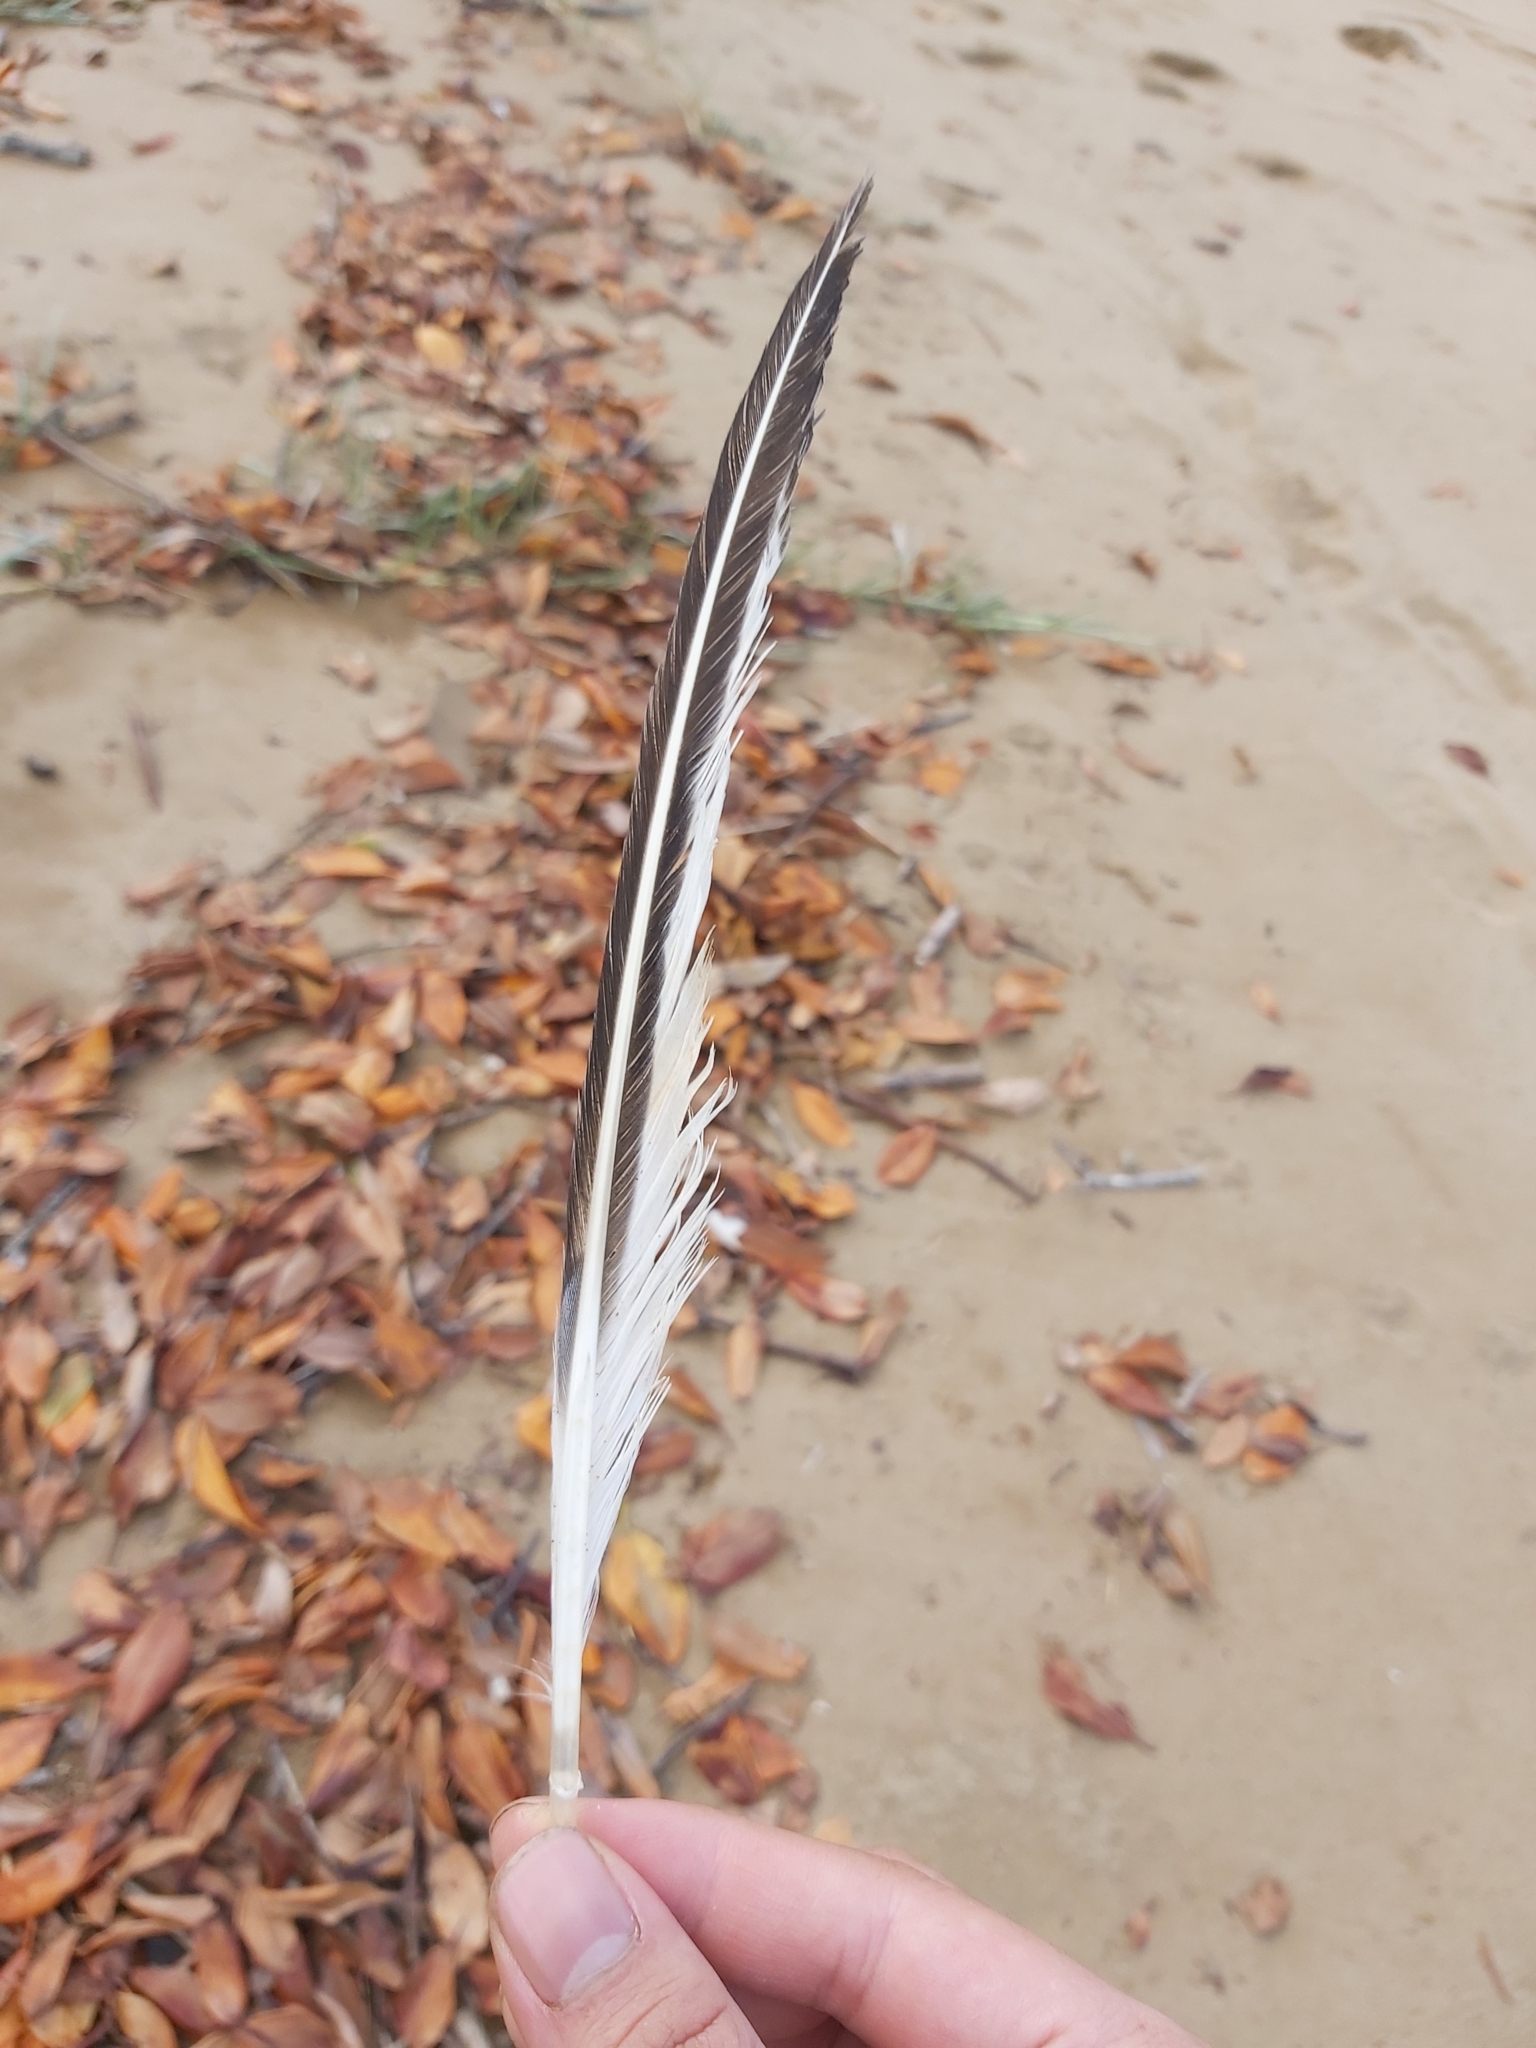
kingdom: Animalia
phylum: Chordata
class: Aves
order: Charadriiformes
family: Laridae
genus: Thalasseus
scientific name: Thalasseus bergii
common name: Greater crested tern
